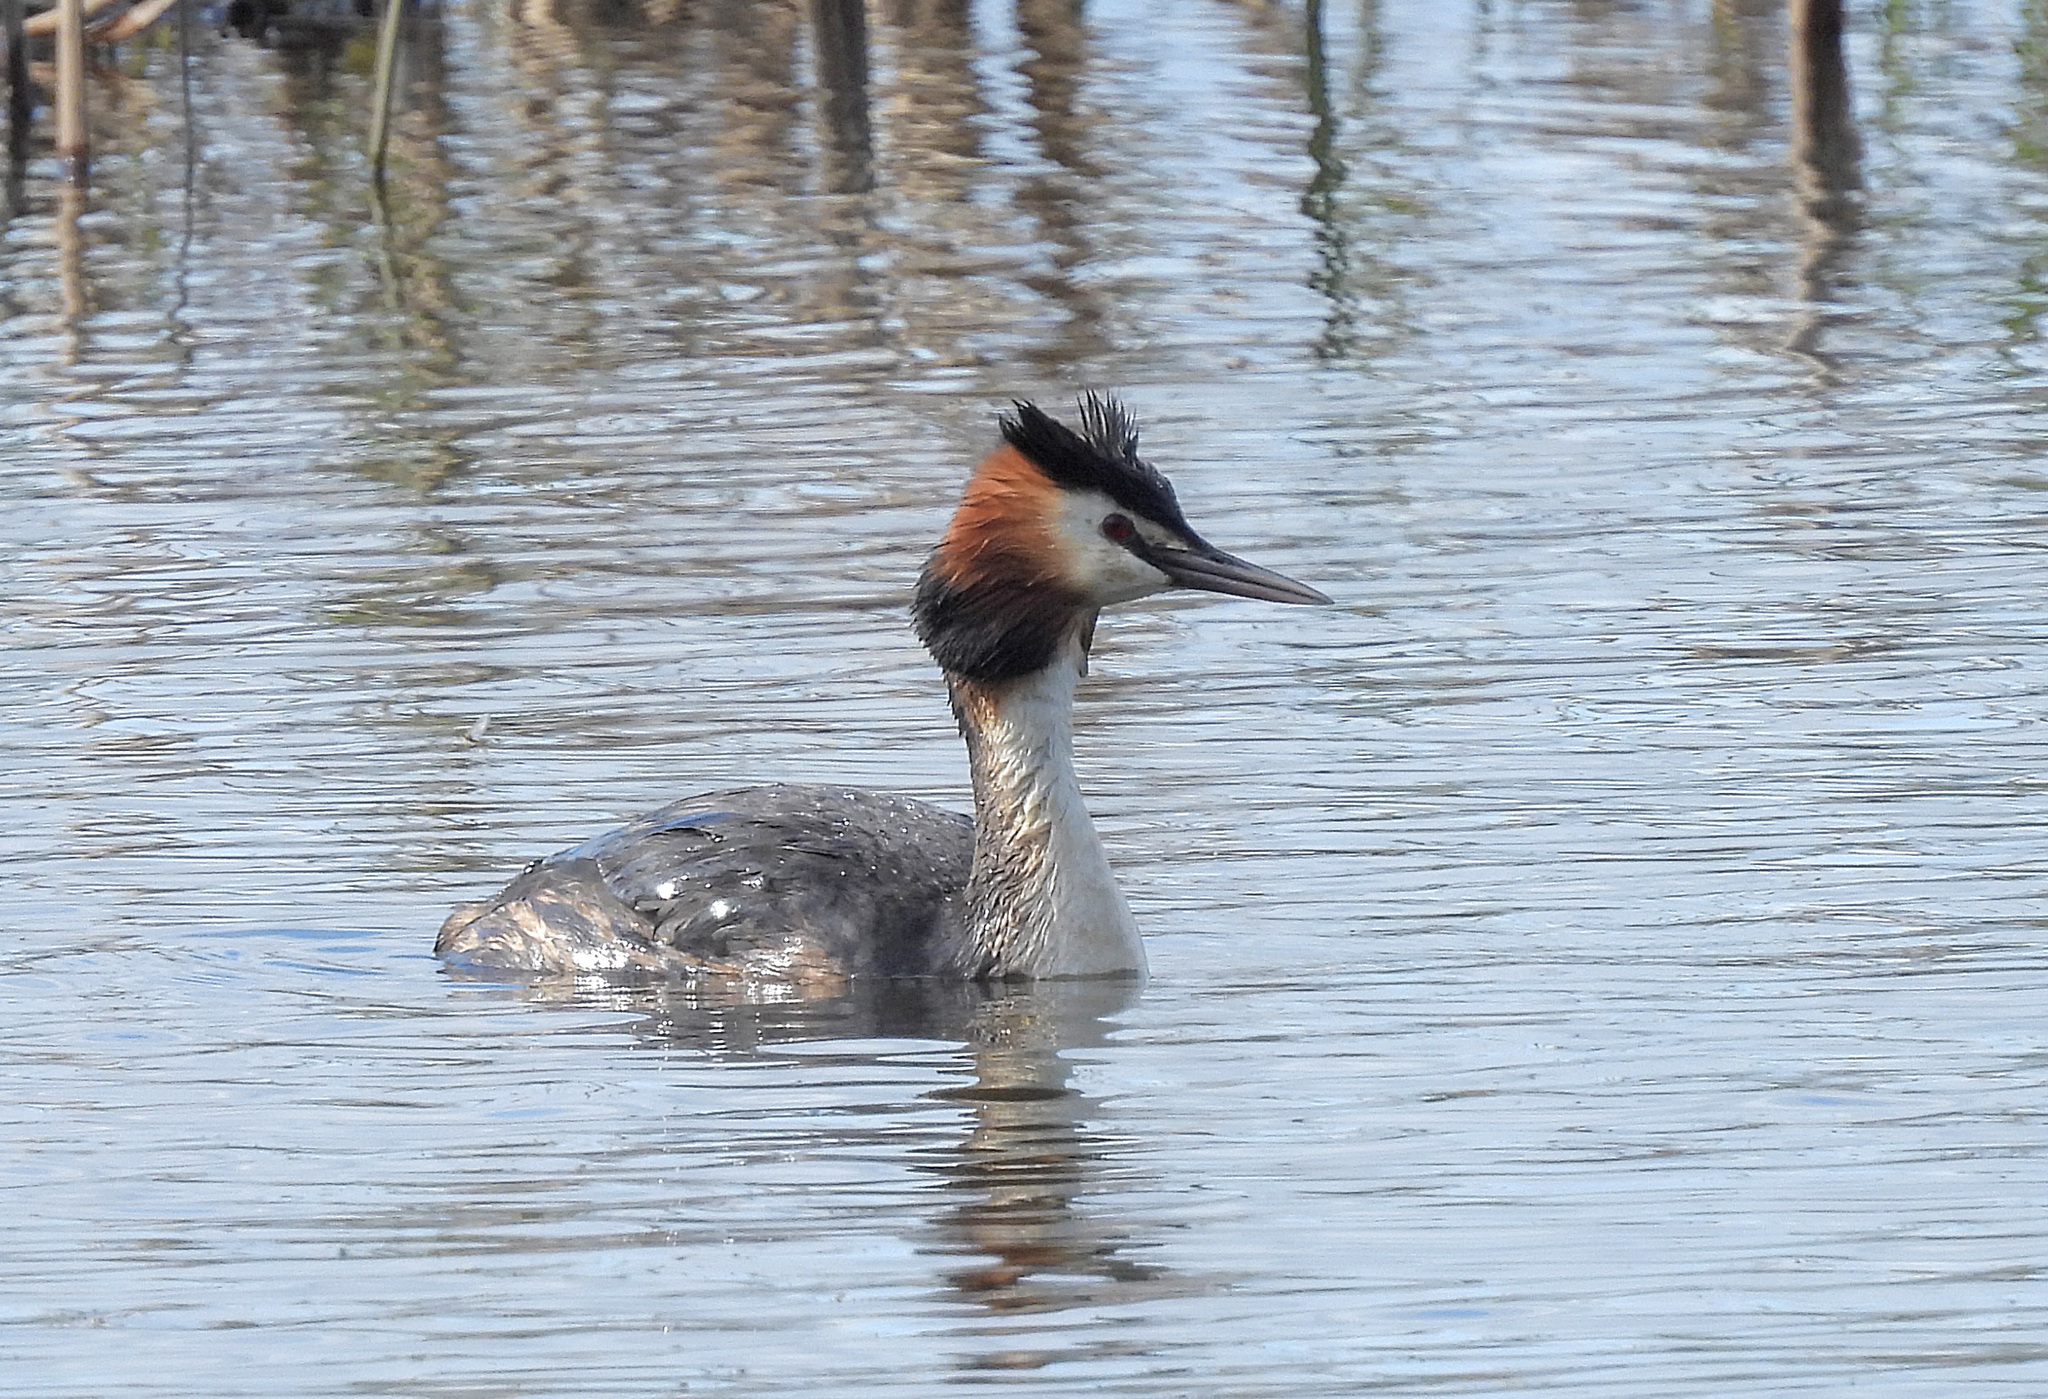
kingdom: Animalia
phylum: Chordata
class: Aves
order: Podicipediformes
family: Podicipedidae
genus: Podiceps
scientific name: Podiceps cristatus
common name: Great crested grebe
